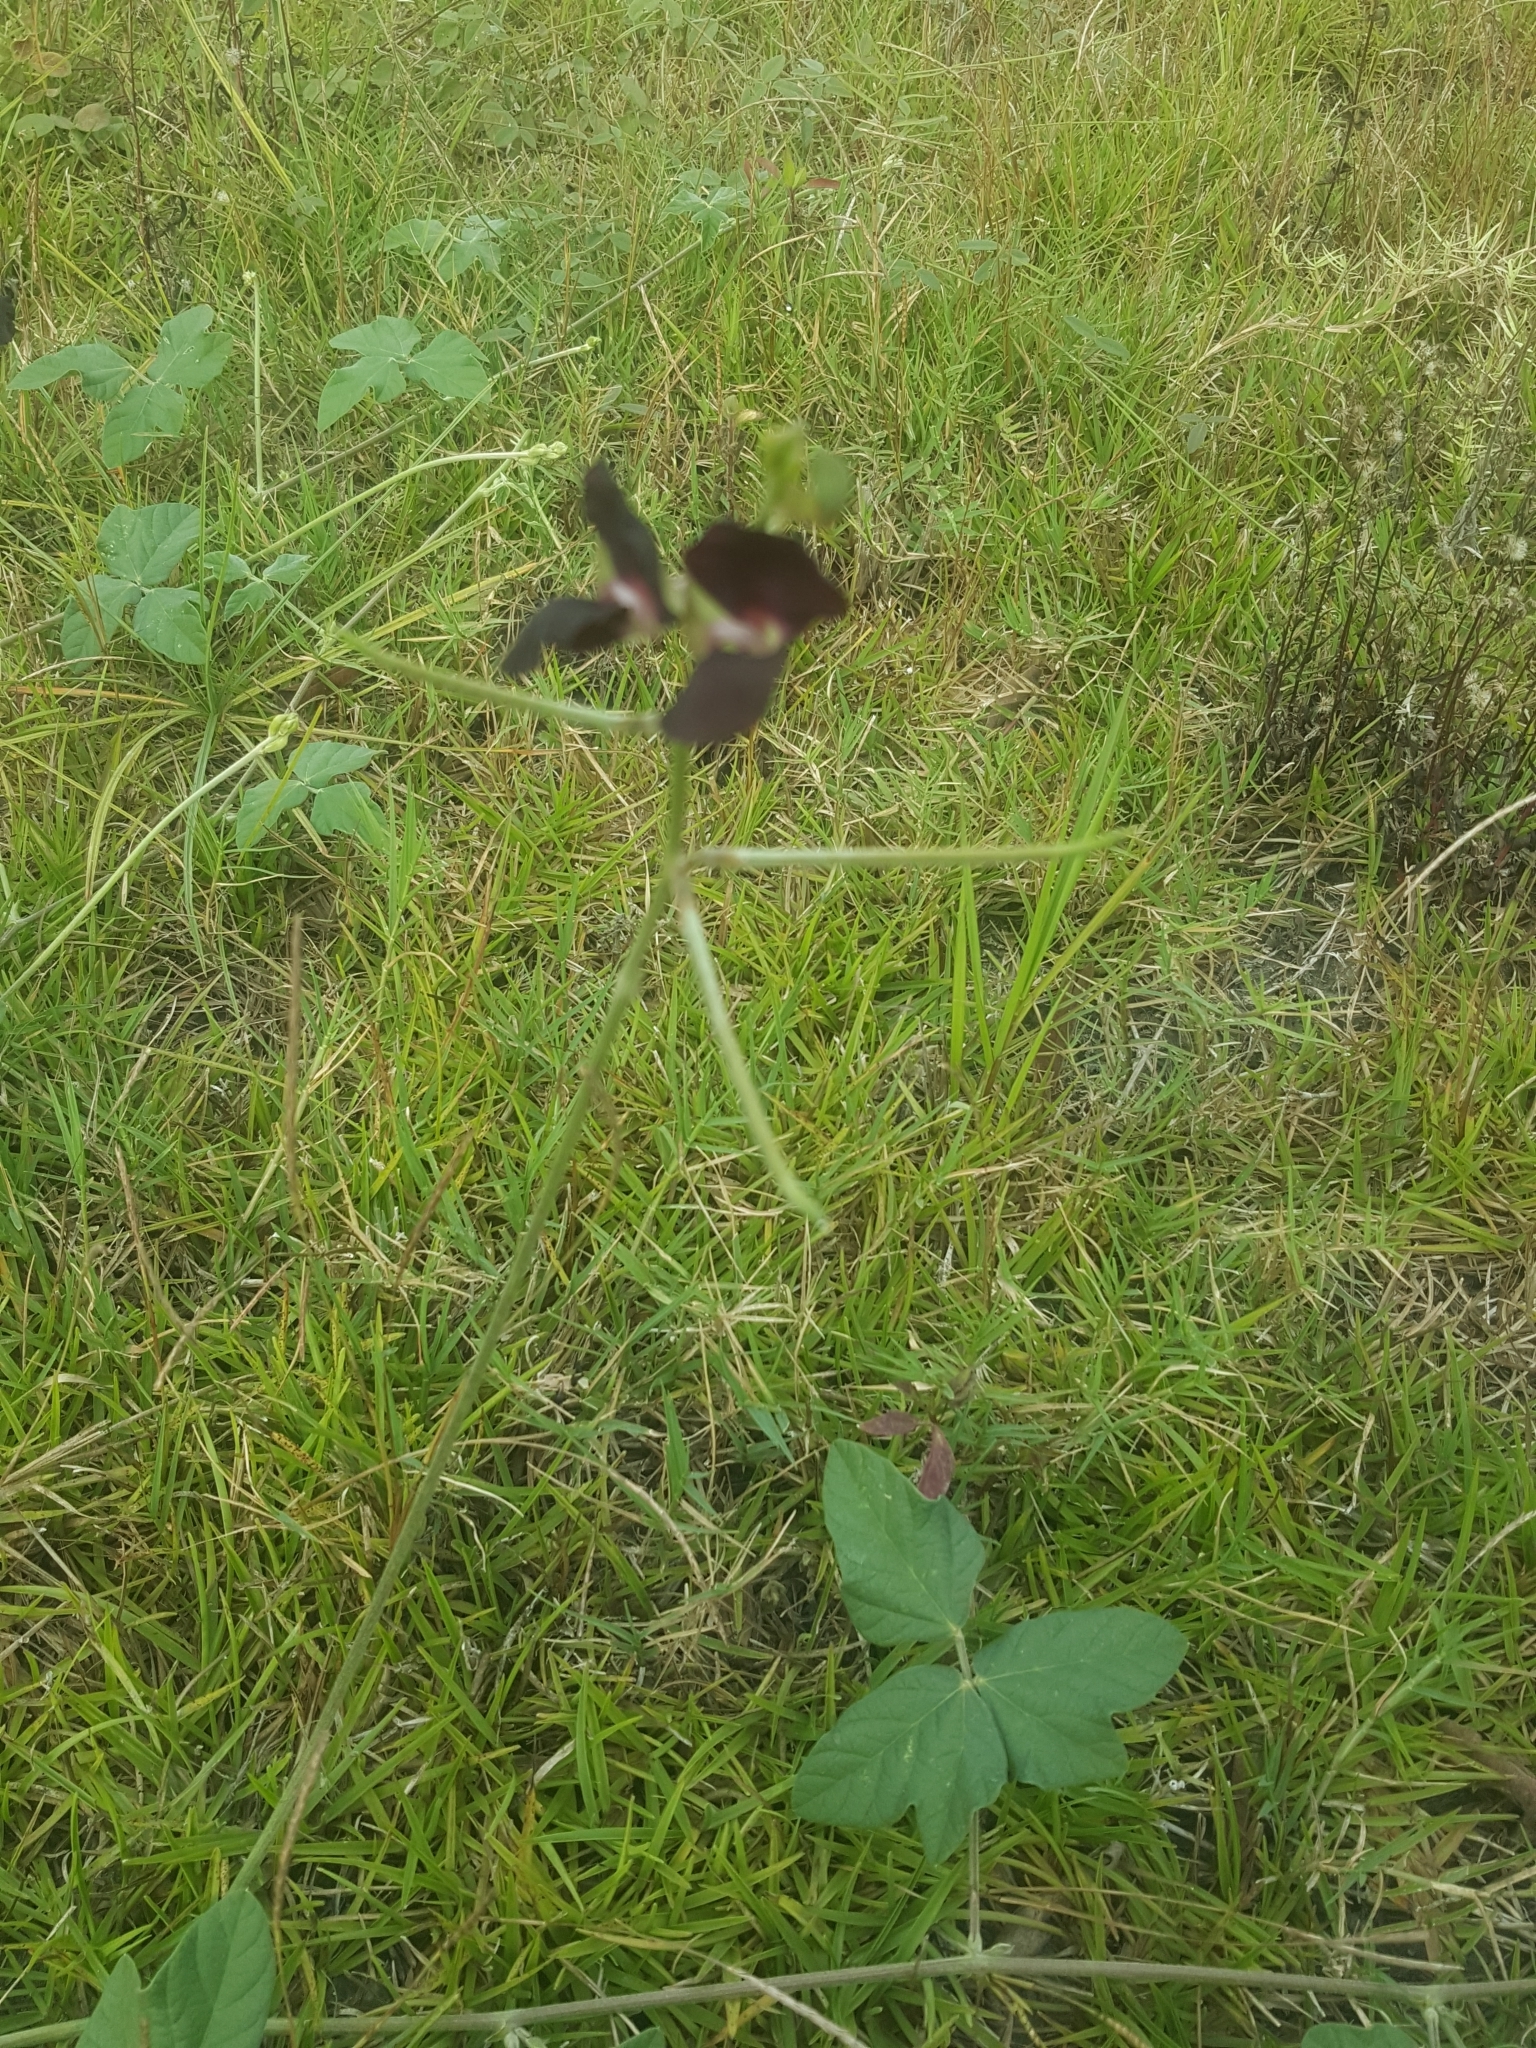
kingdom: Plantae
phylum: Tracheophyta
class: Magnoliopsida
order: Fabales
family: Fabaceae
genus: Macroptilium
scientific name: Macroptilium atropurpureum
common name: Purple bushbean
